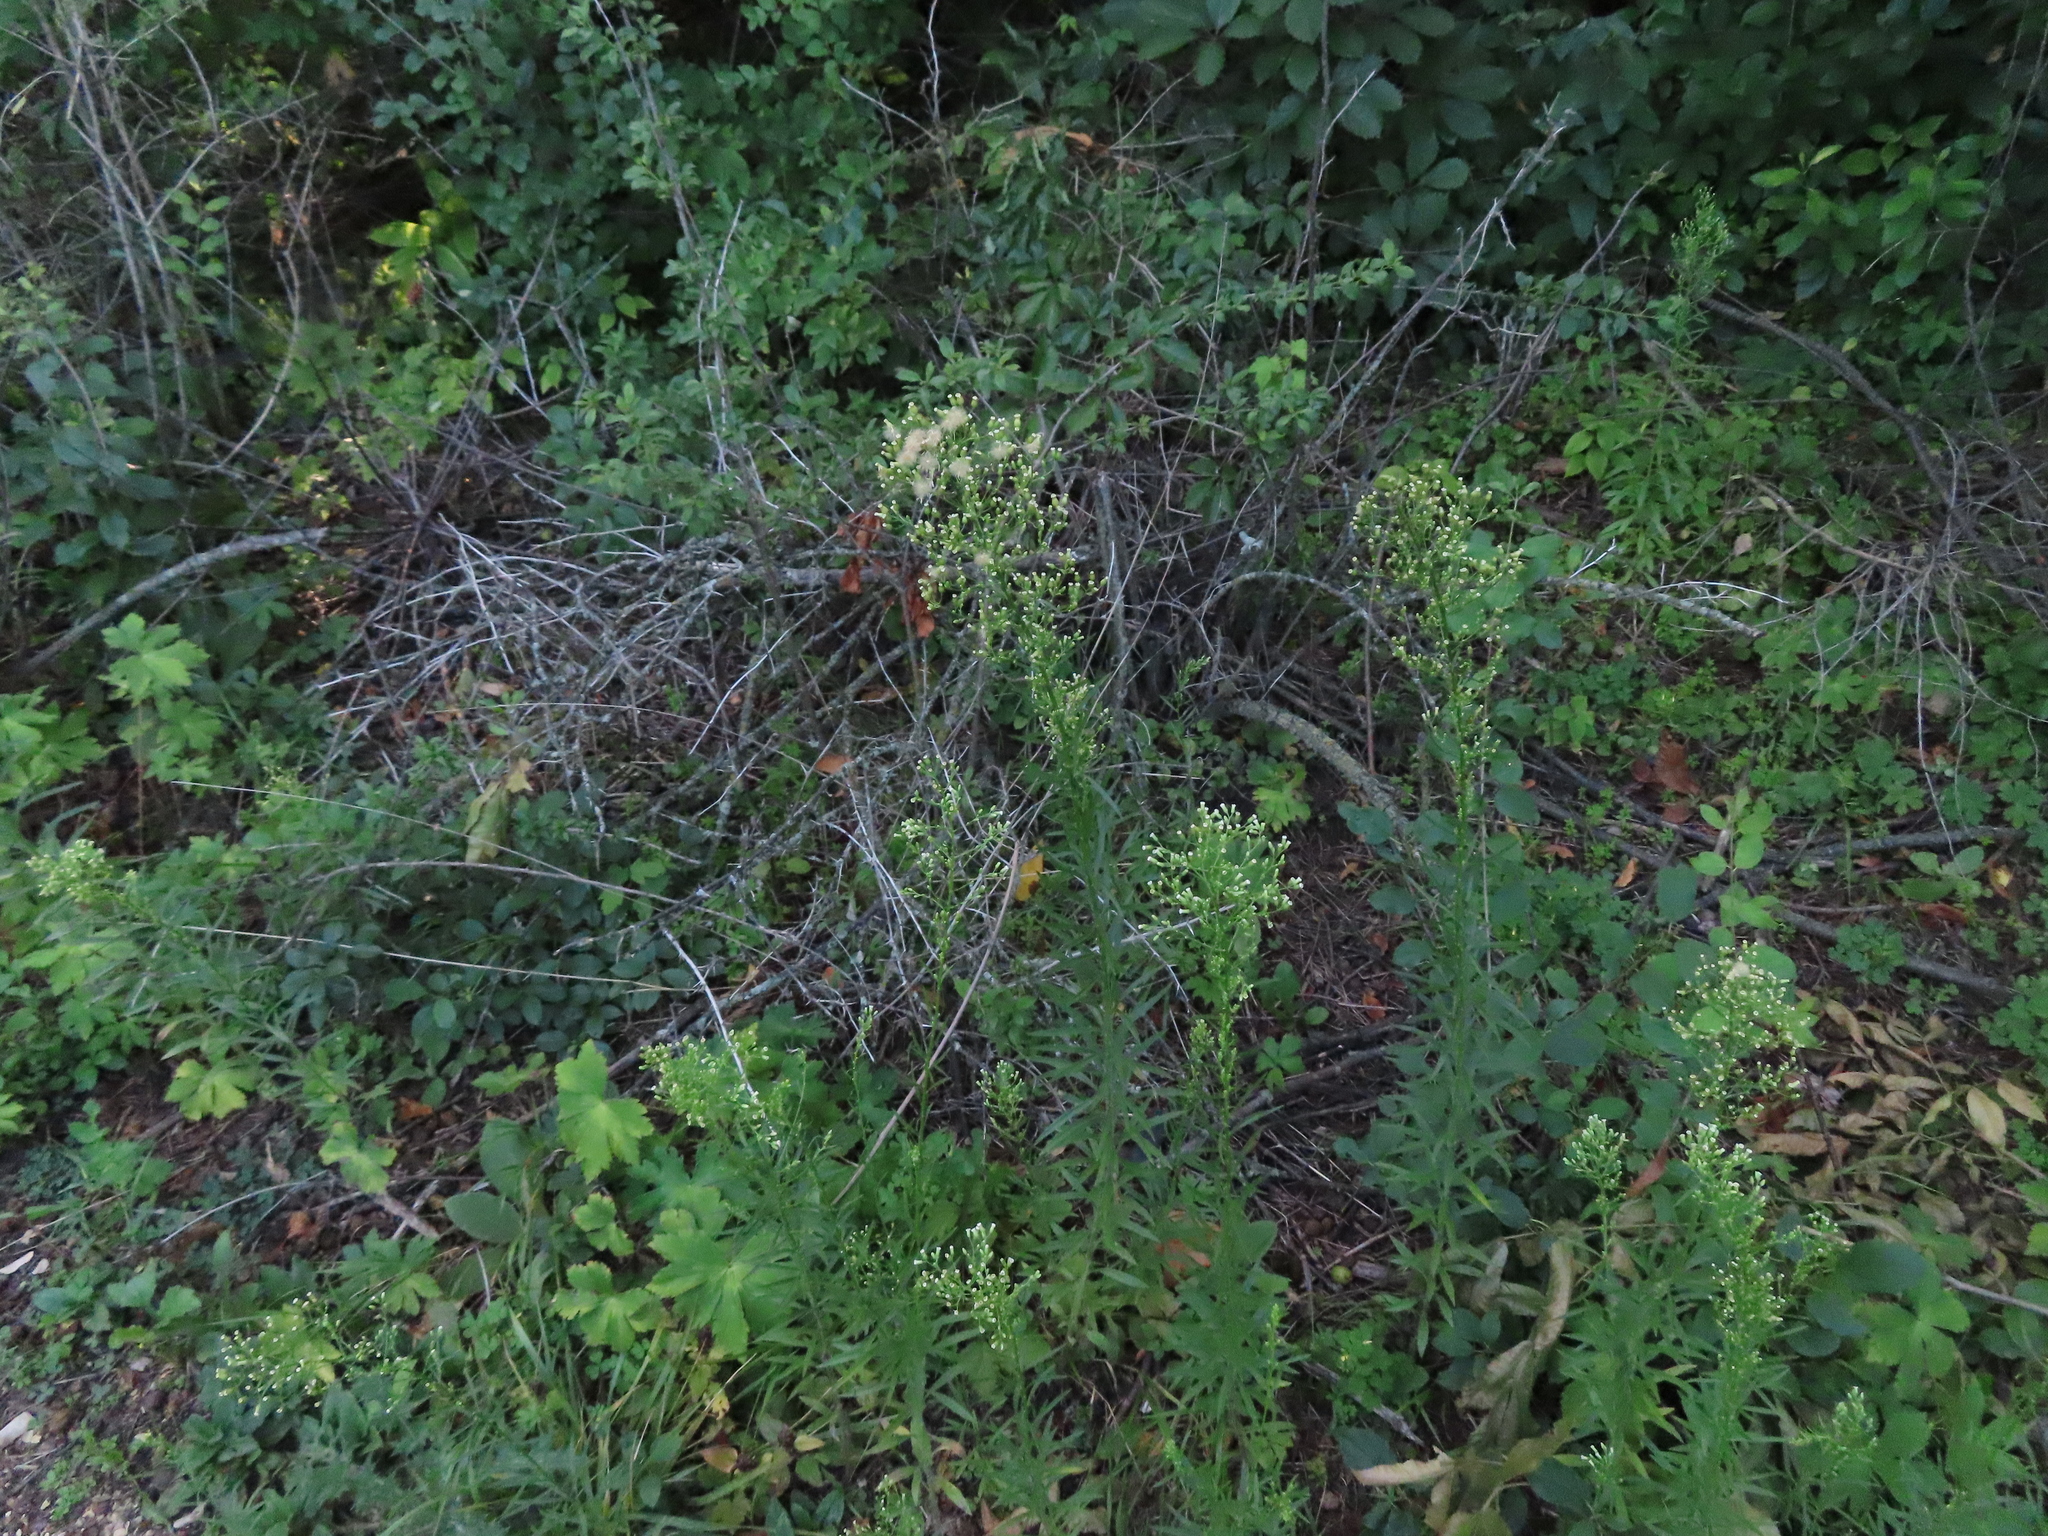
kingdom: Plantae
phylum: Tracheophyta
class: Magnoliopsida
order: Asterales
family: Asteraceae
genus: Erigeron
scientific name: Erigeron canadensis
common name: Canadian fleabane
